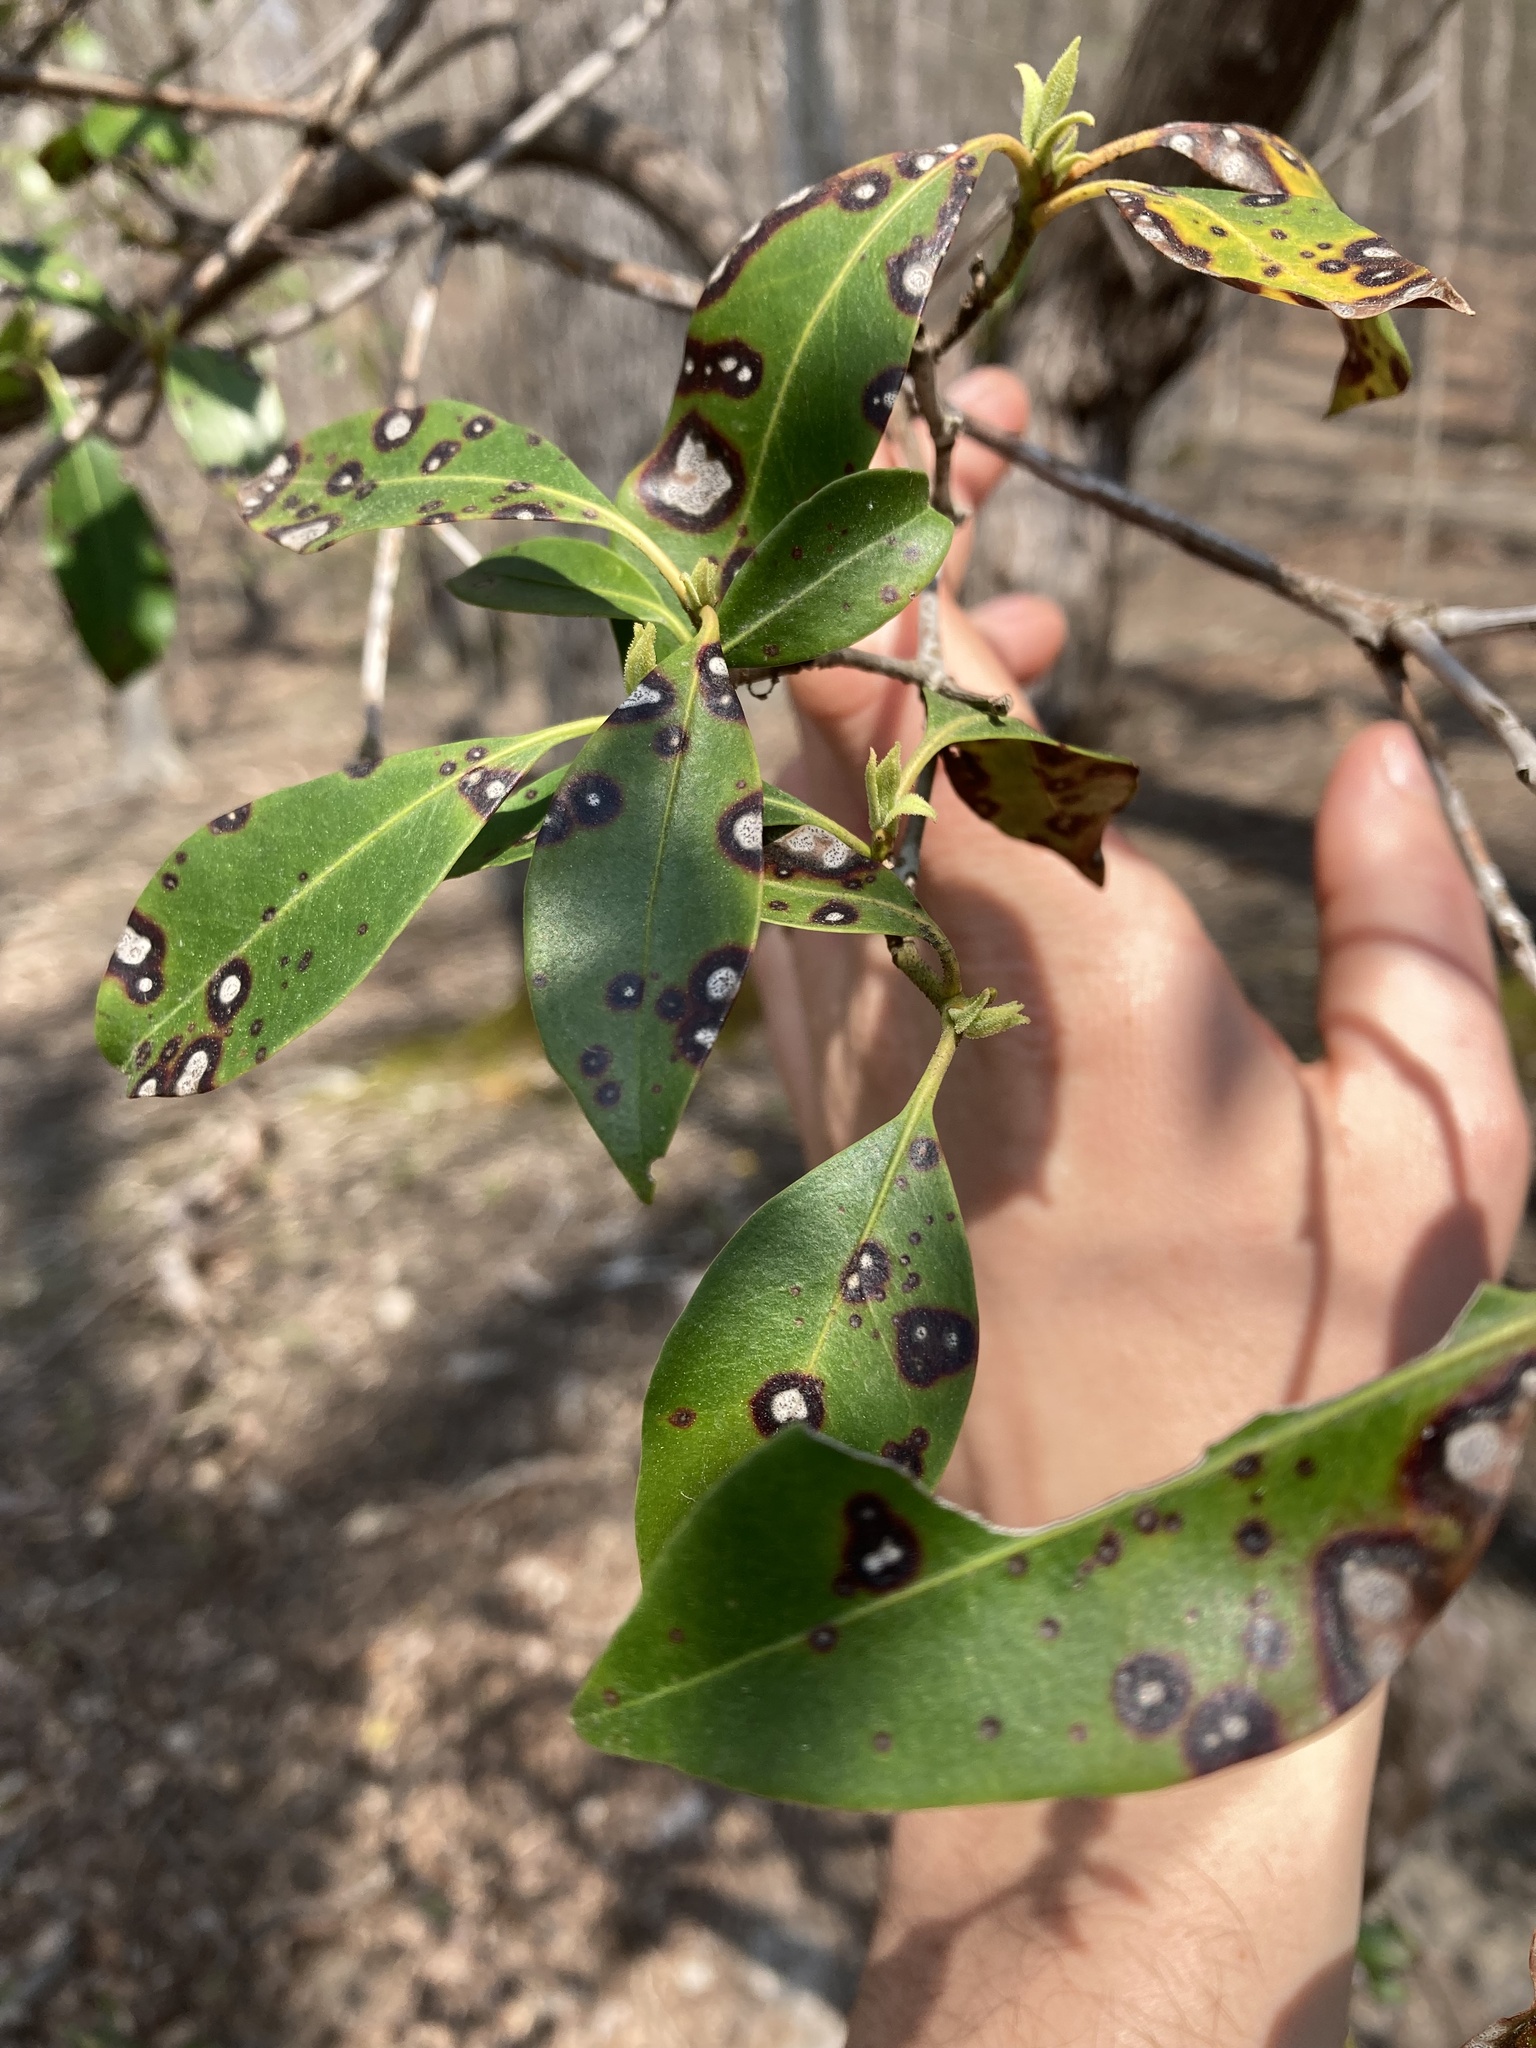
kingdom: Plantae
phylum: Tracheophyta
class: Magnoliopsida
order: Ericales
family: Ericaceae
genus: Kalmia
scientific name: Kalmia latifolia
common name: Mountain-laurel
